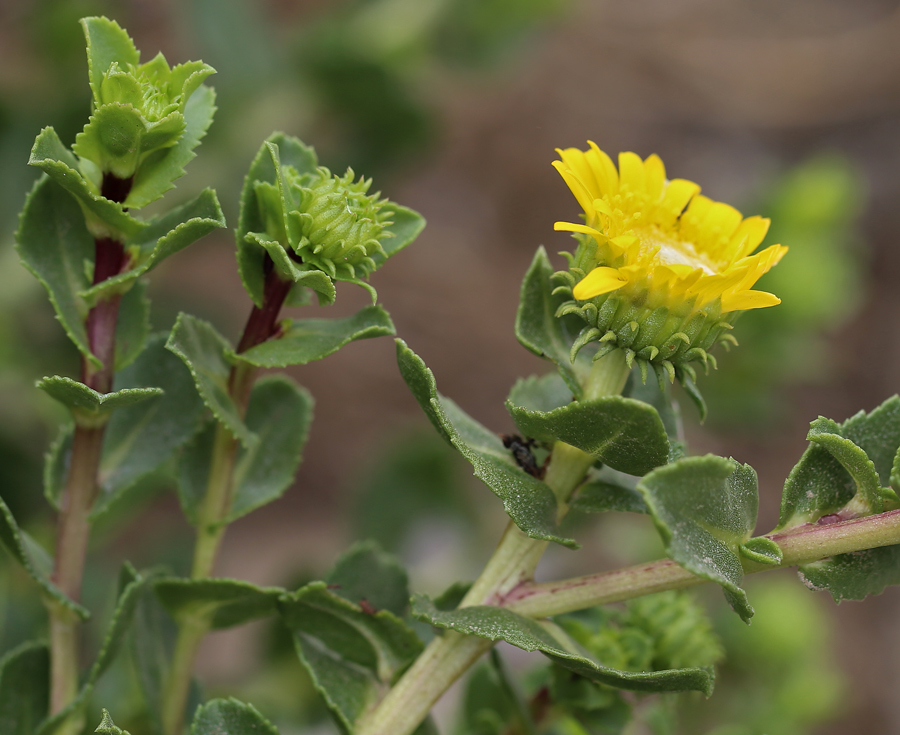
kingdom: Plantae
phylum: Tracheophyta
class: Magnoliopsida
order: Asterales
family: Asteraceae
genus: Grindelia
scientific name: Grindelia hirsutula
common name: Hairy gumweed
